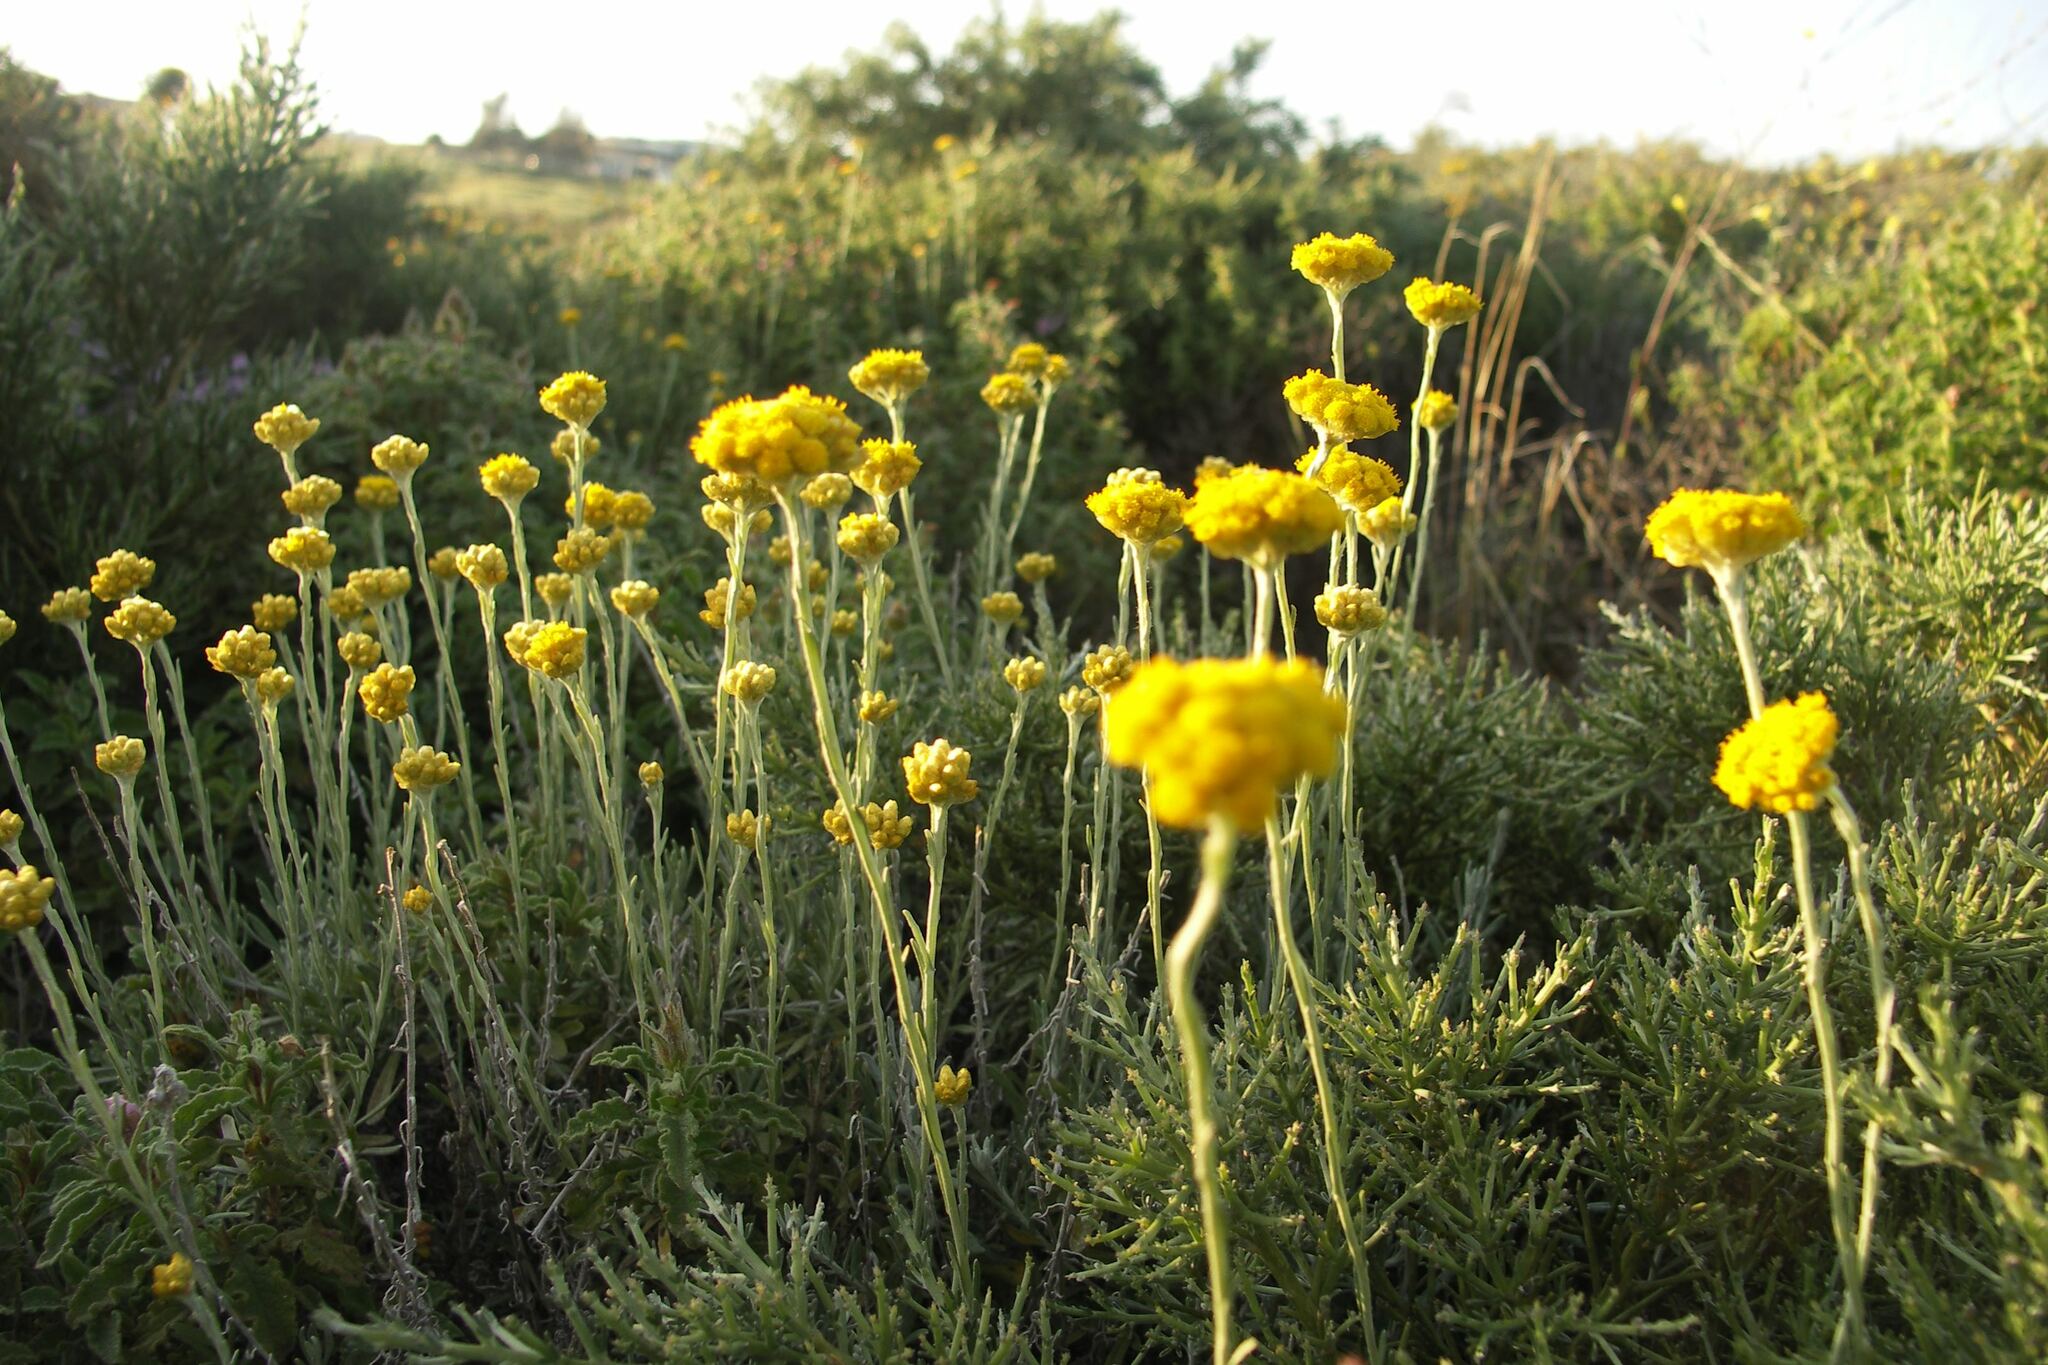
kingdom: Plantae
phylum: Tracheophyta
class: Magnoliopsida
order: Asterales
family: Asteraceae
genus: Helichrysum
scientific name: Helichrysum stoechas
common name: Goldilocks
